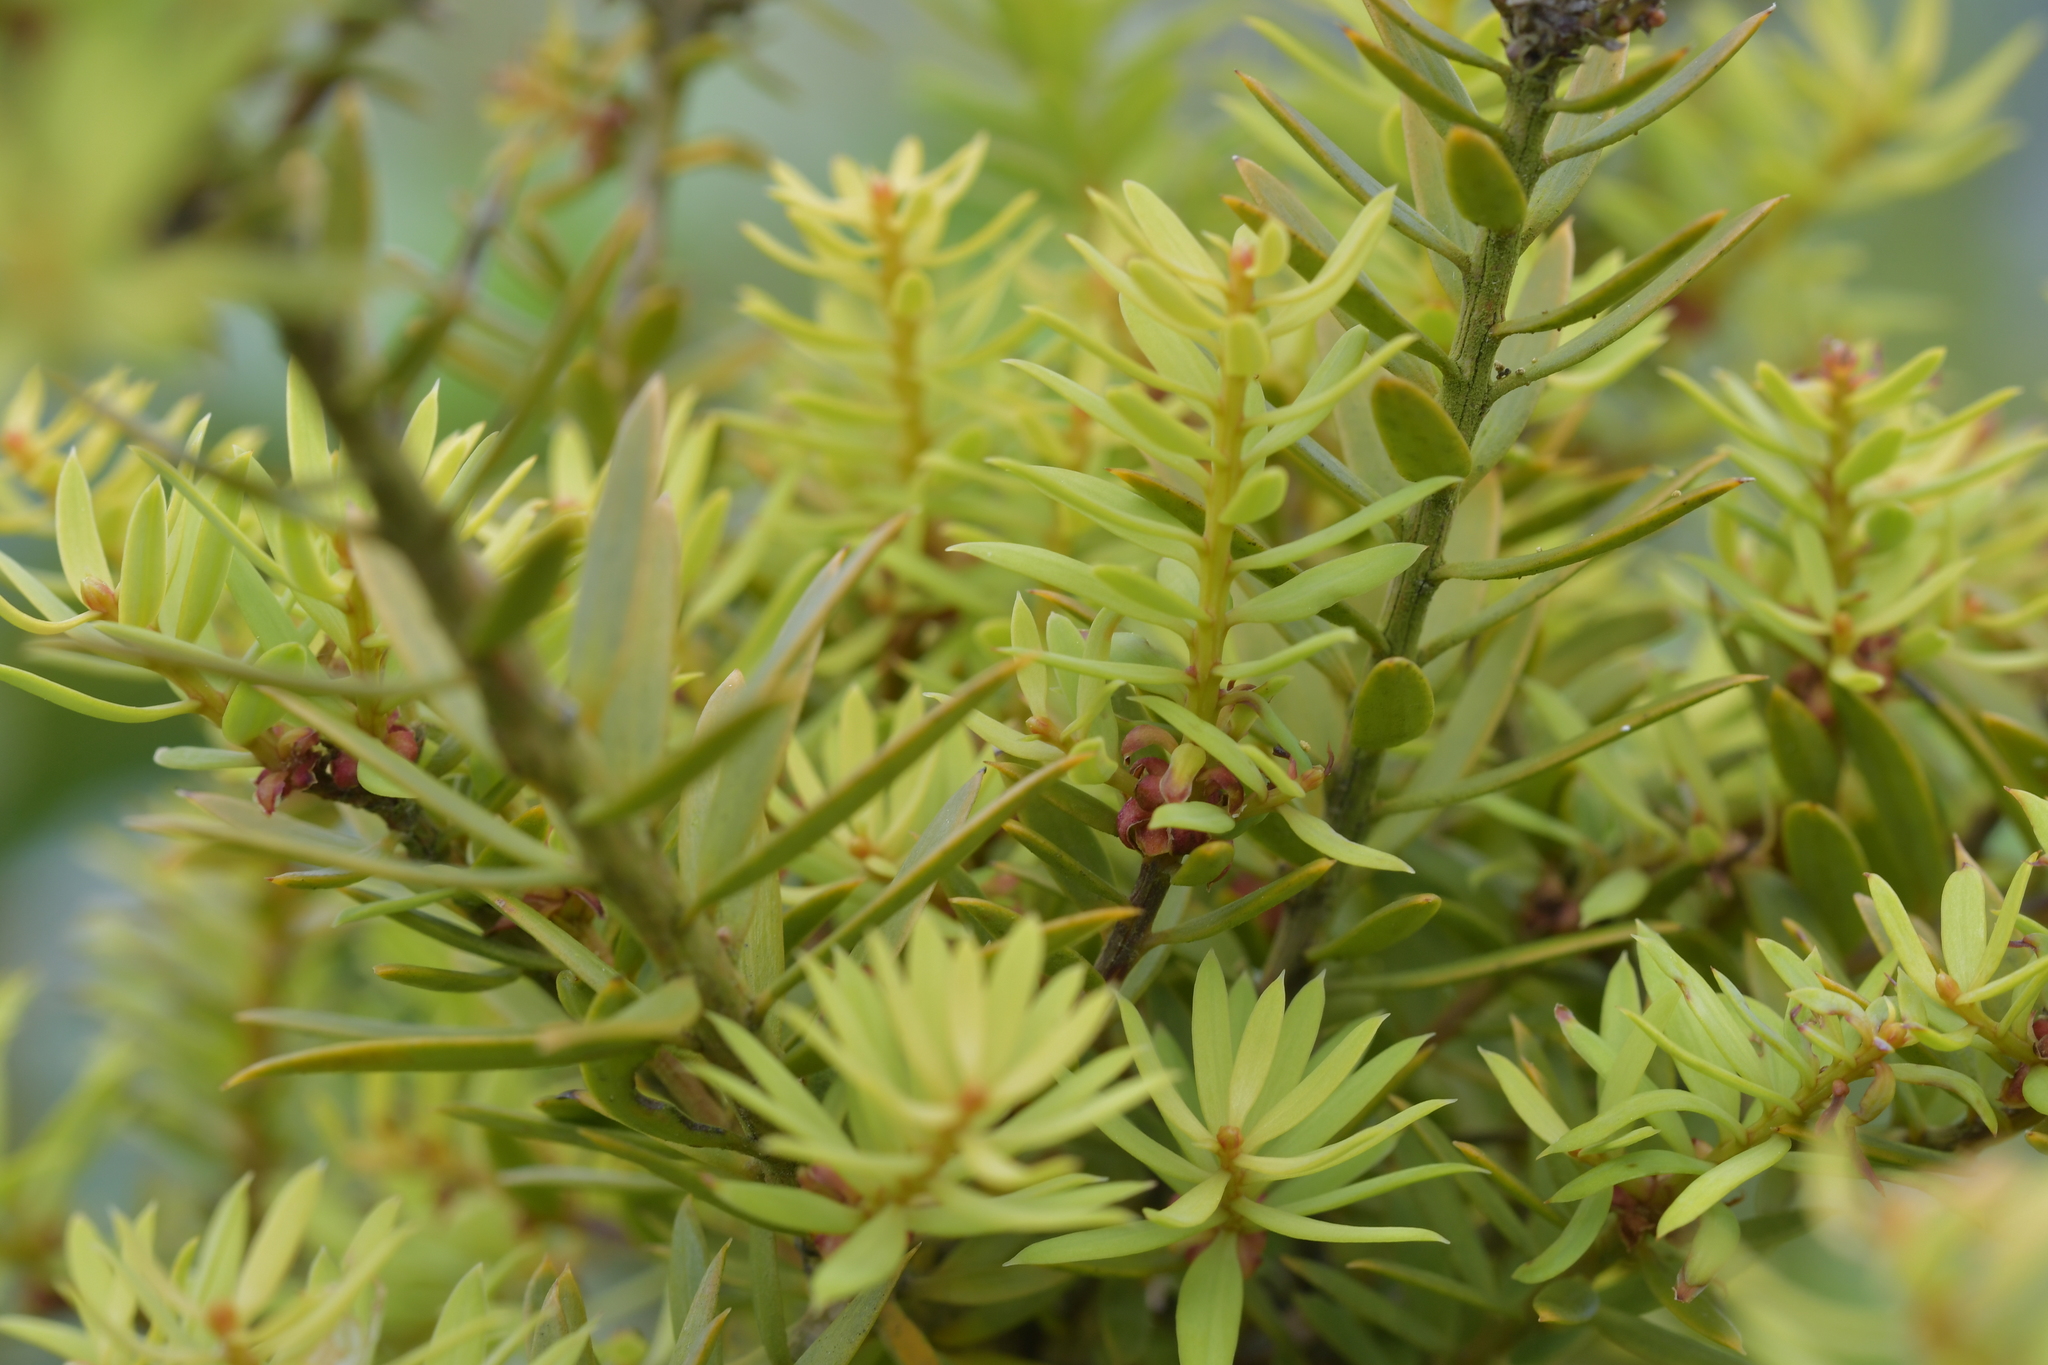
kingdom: Plantae
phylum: Tracheophyta
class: Pinopsida
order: Pinales
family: Podocarpaceae
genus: Podocarpus
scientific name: Podocarpus totara
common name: Totara
